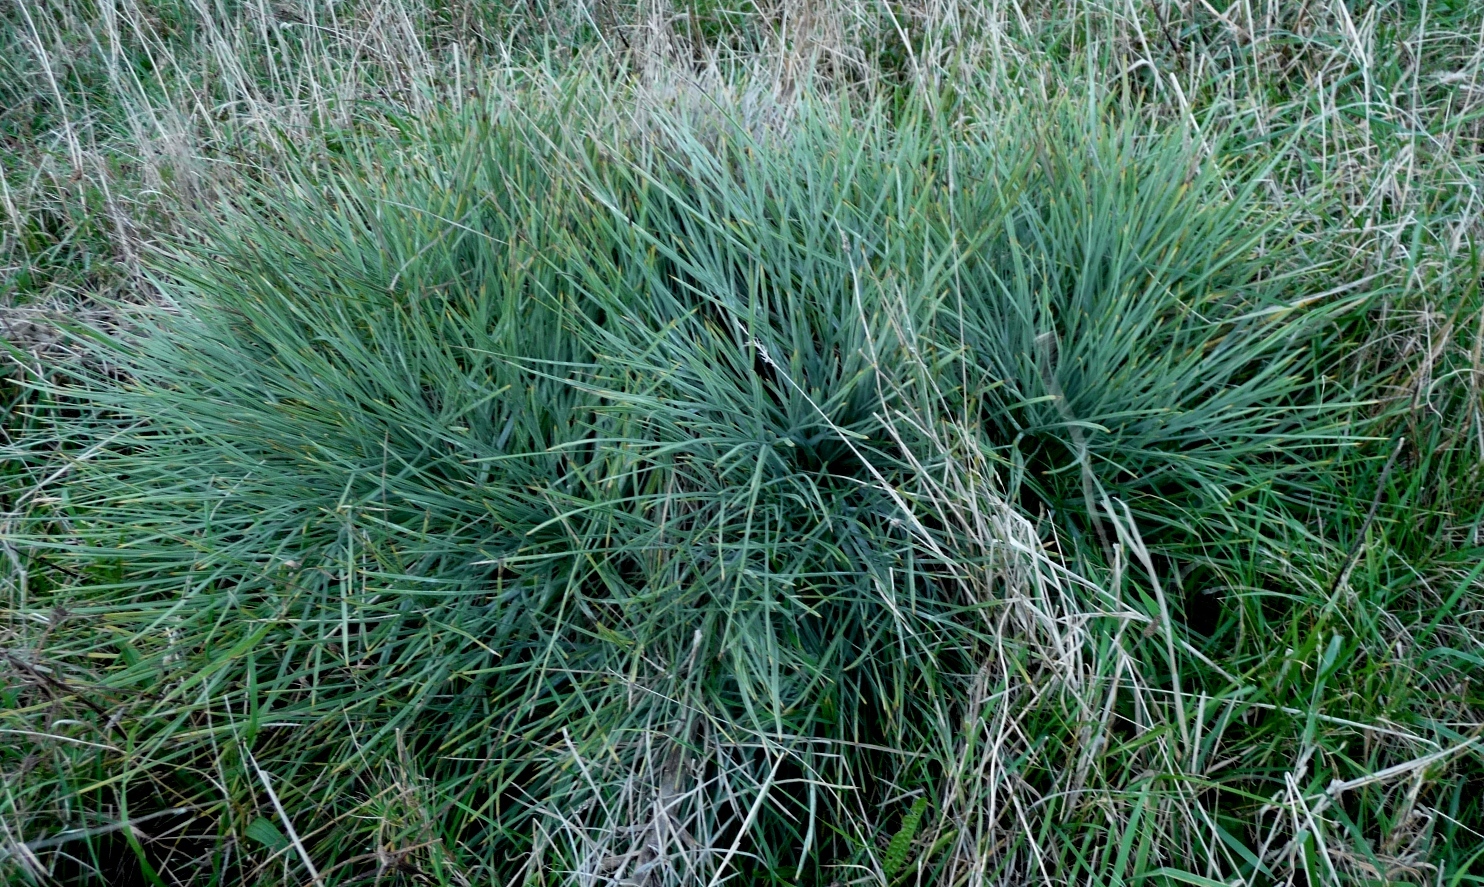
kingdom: Plantae
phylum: Tracheophyta
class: Magnoliopsida
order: Apiales
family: Apiaceae
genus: Aciphylla
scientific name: Aciphylla squarrosa
